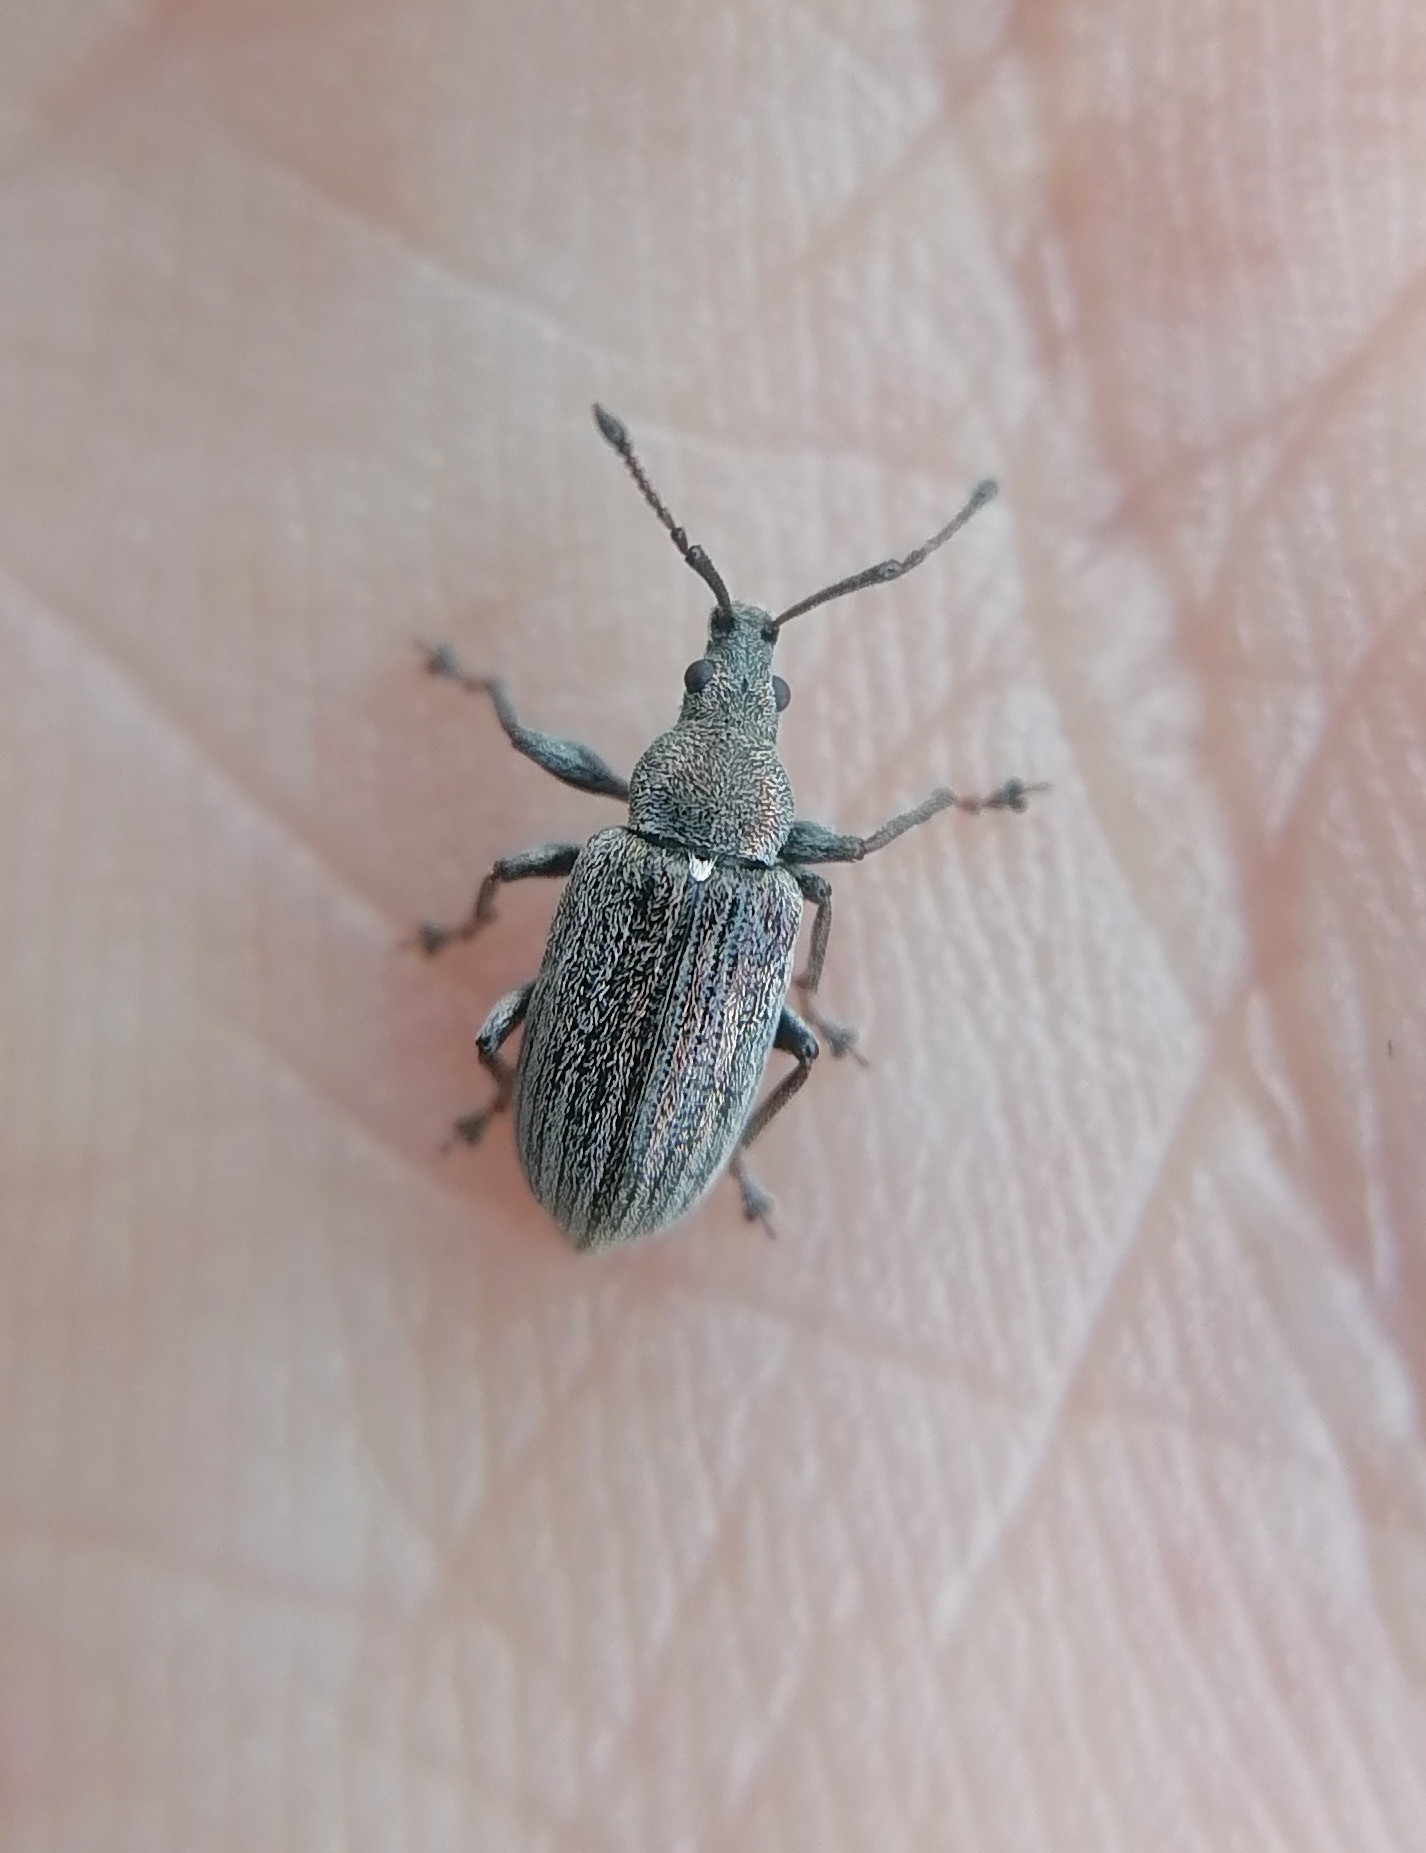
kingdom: Animalia
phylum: Arthropoda
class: Insecta
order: Coleoptera
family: Curculionidae
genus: Phyllobius
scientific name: Phyllobius pyri
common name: Common leaf weevil
